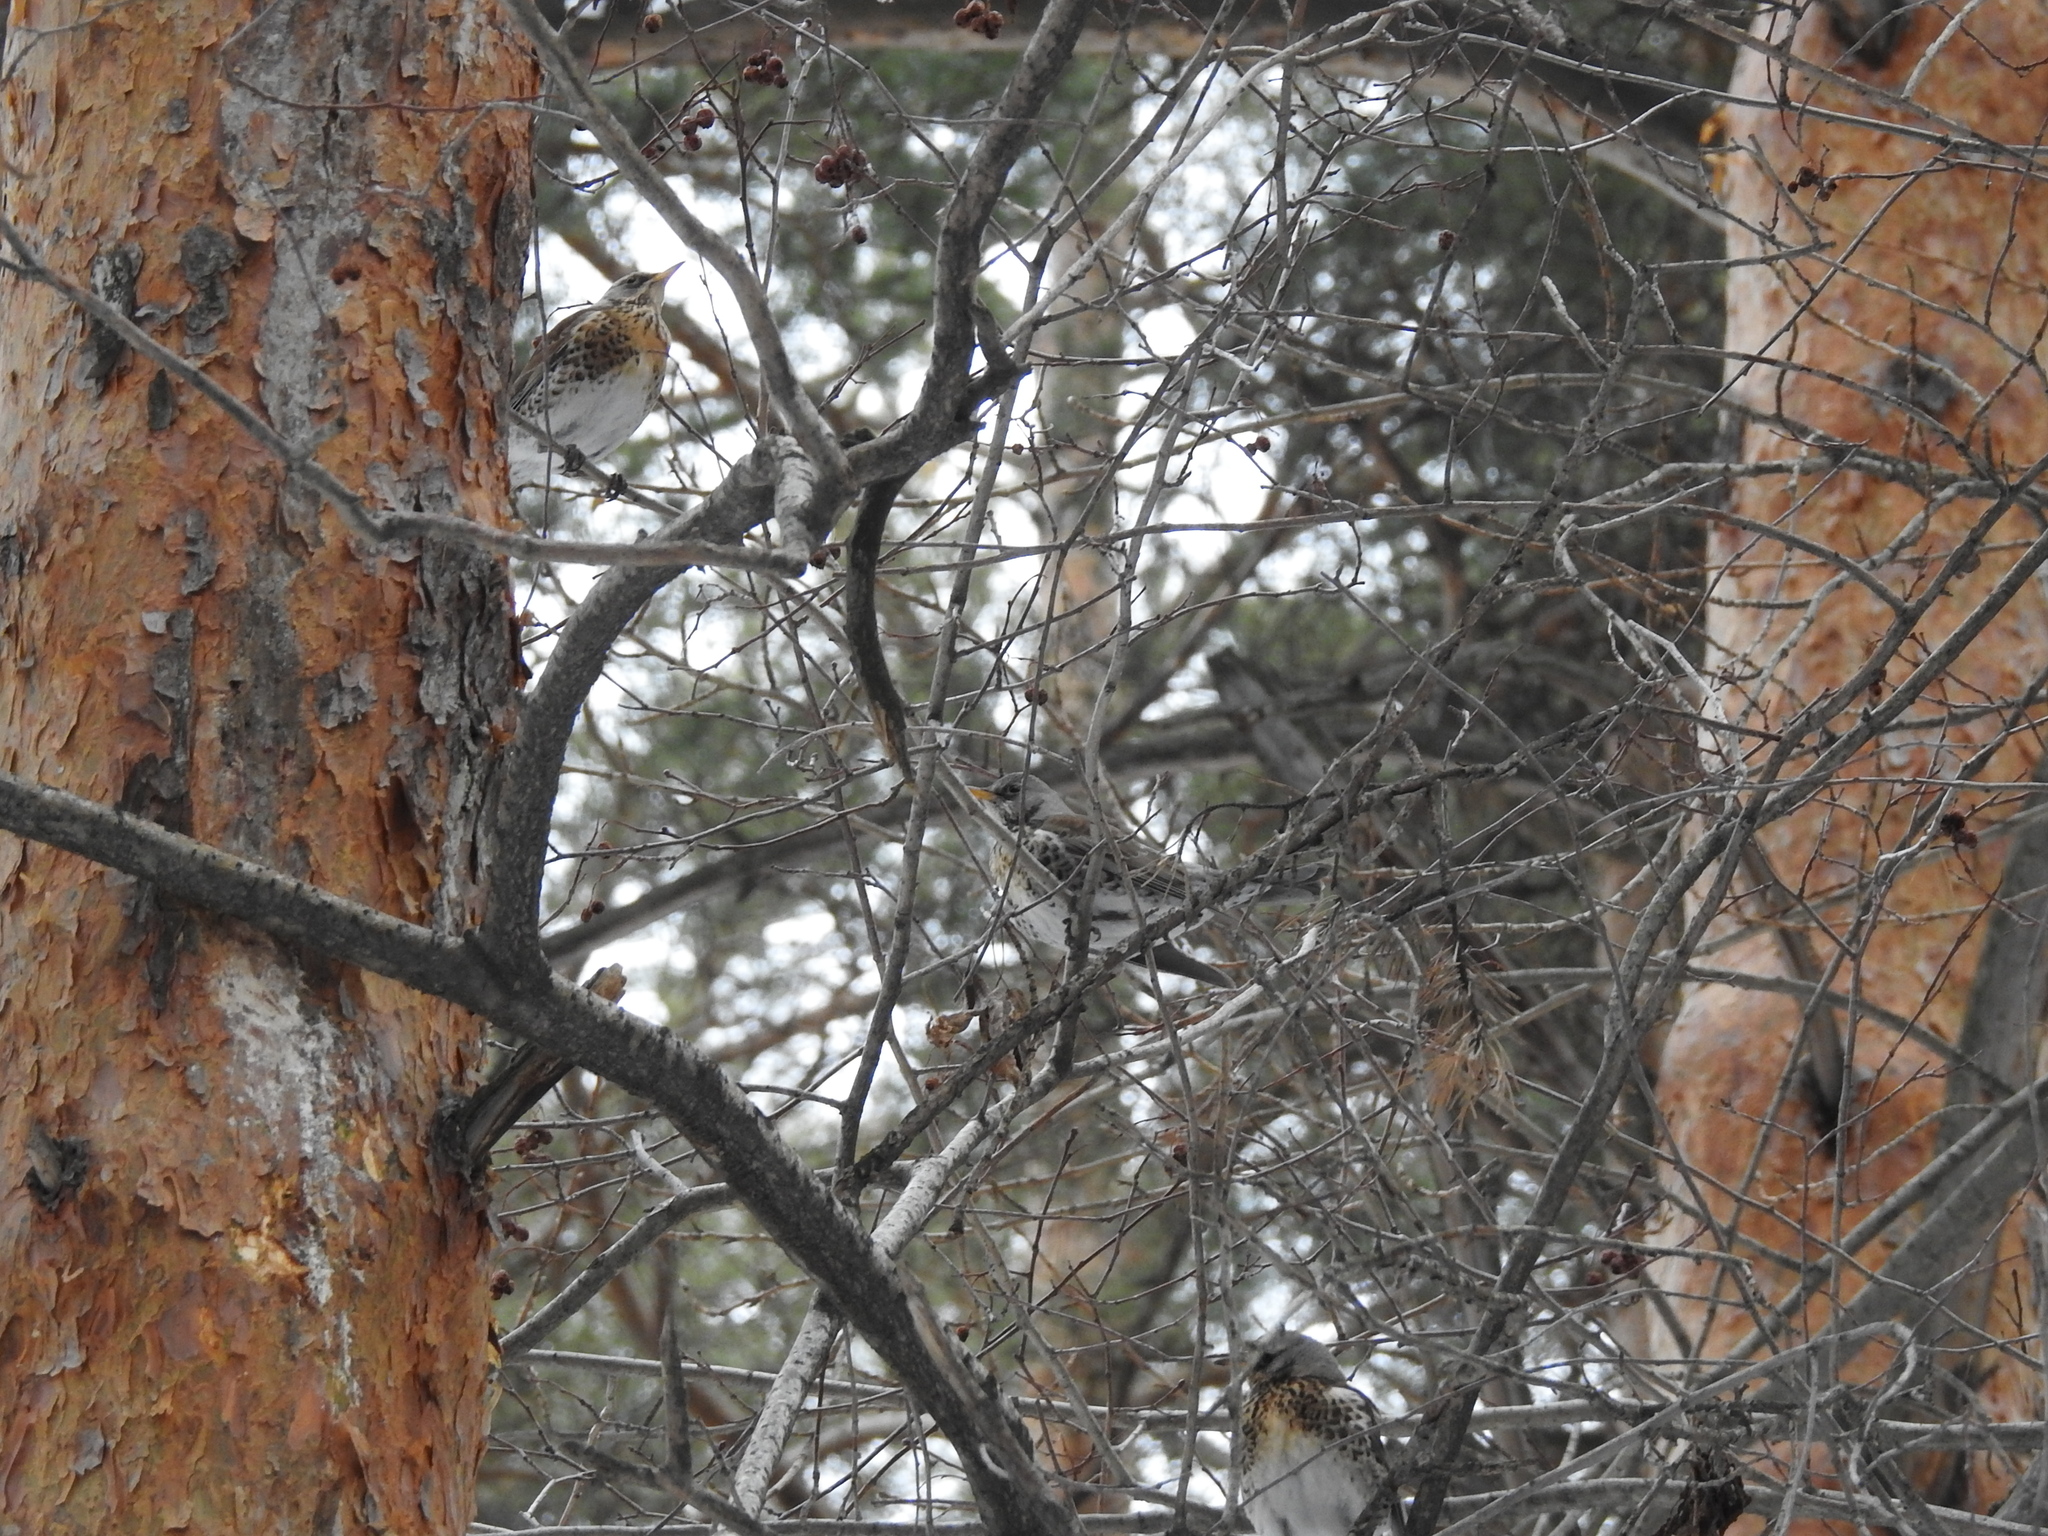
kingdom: Animalia
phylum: Chordata
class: Aves
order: Passeriformes
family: Turdidae
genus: Turdus
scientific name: Turdus pilaris
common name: Fieldfare
